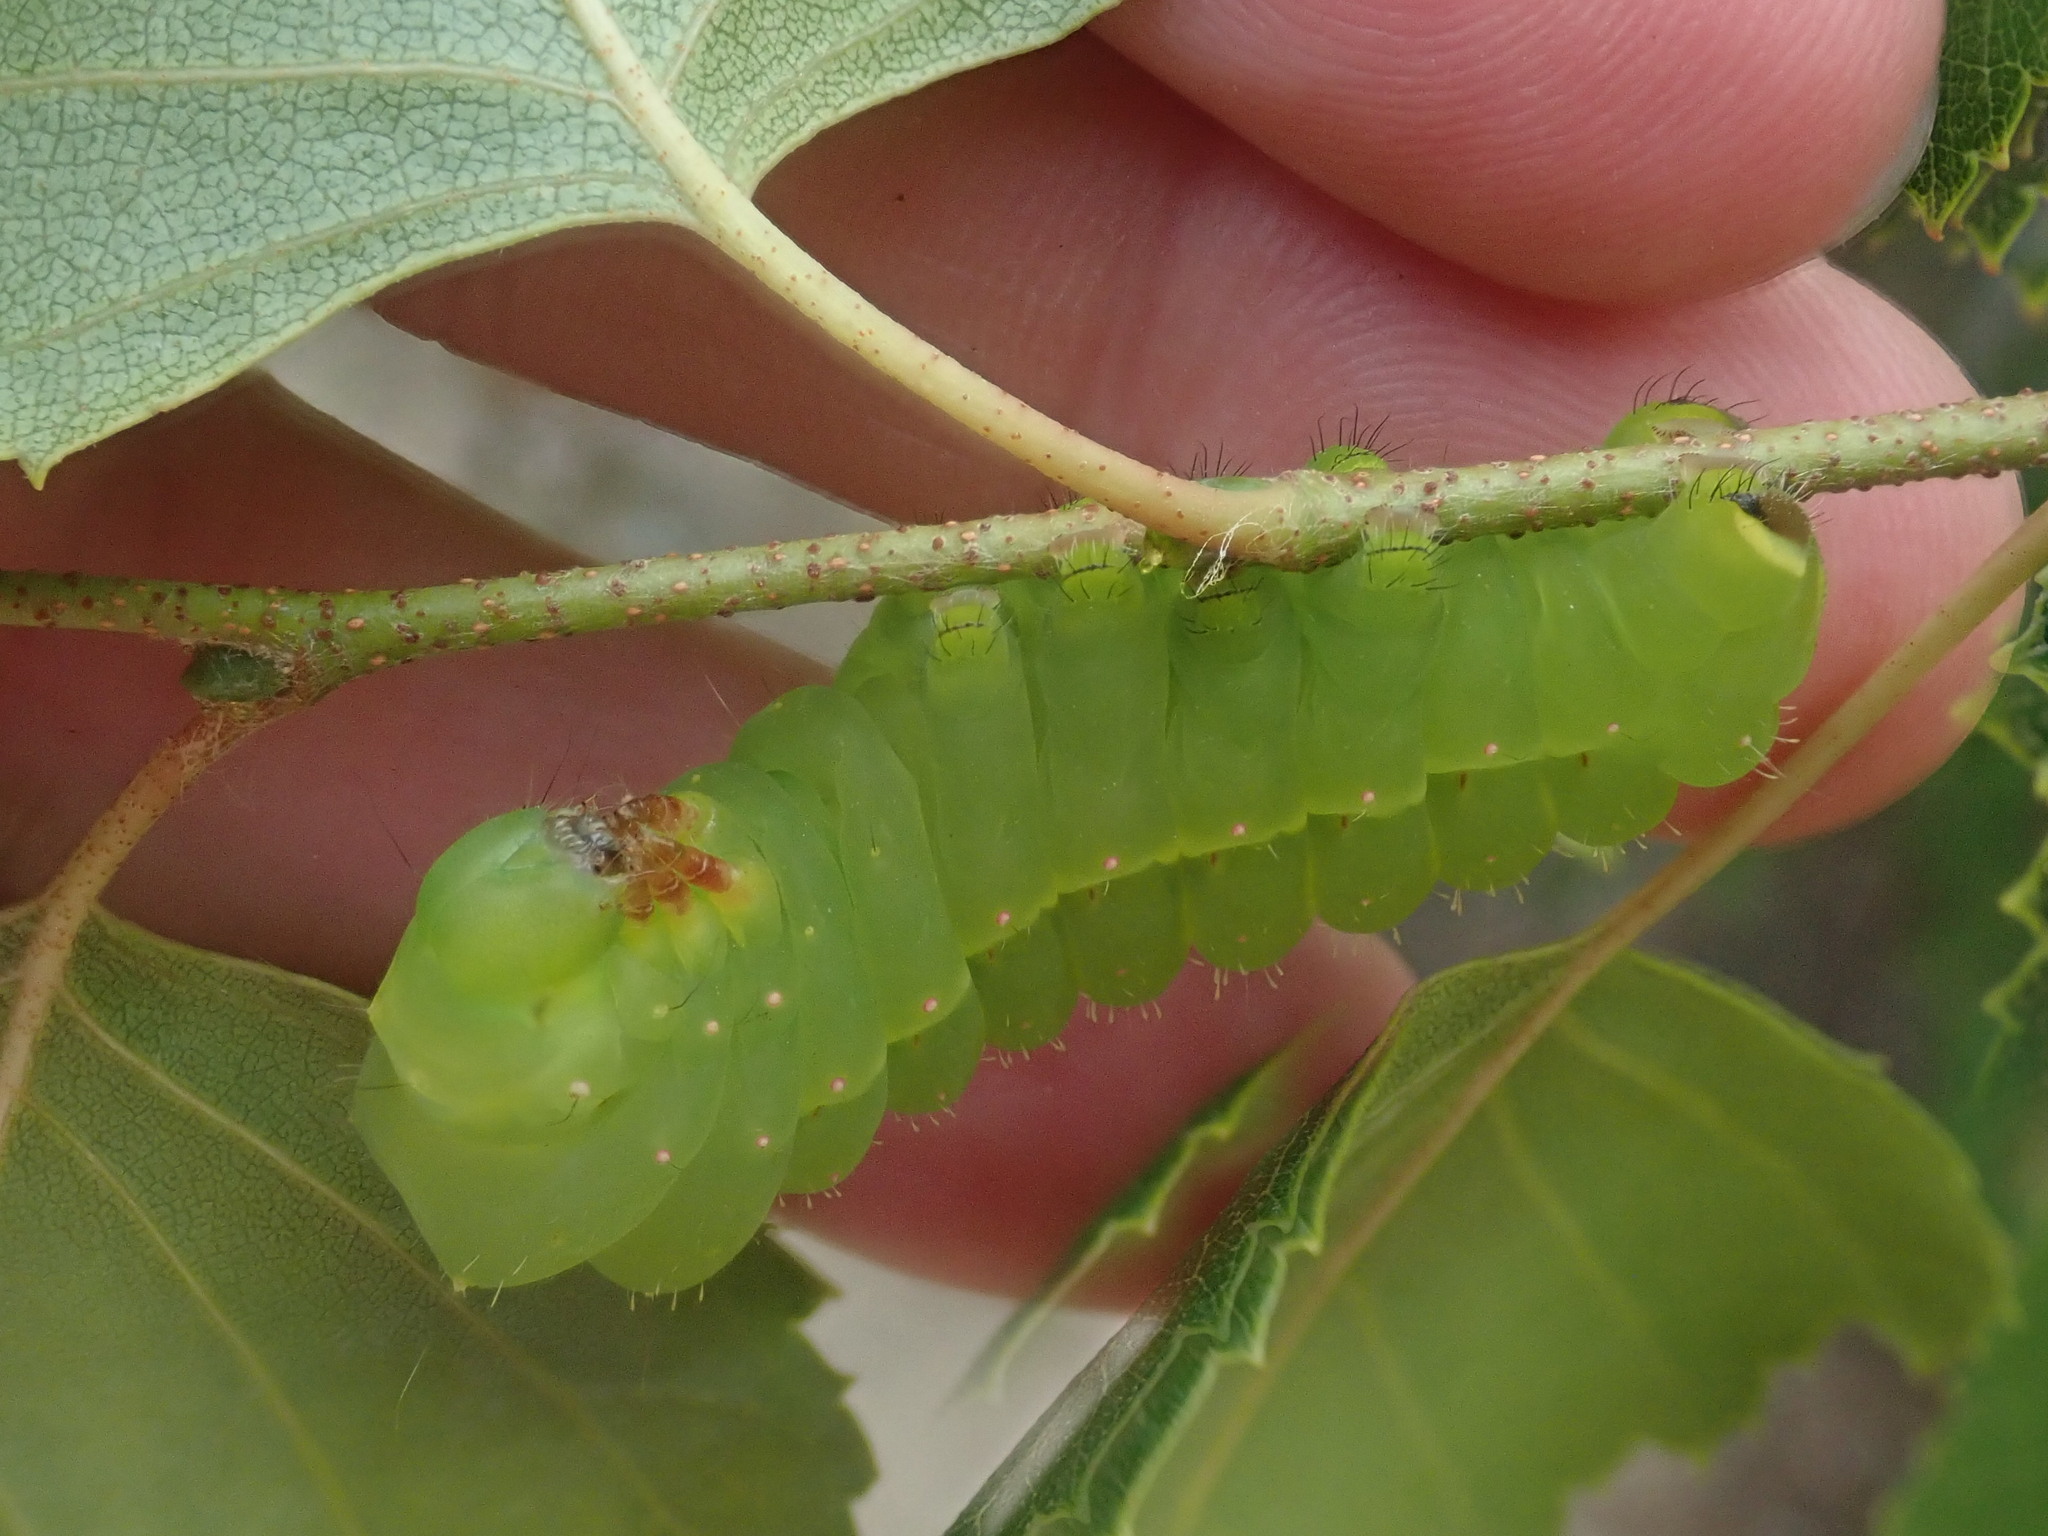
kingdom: Animalia
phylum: Arthropoda
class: Insecta
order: Lepidoptera
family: Saturniidae
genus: Actias
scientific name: Actias luna
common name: Luna moth
